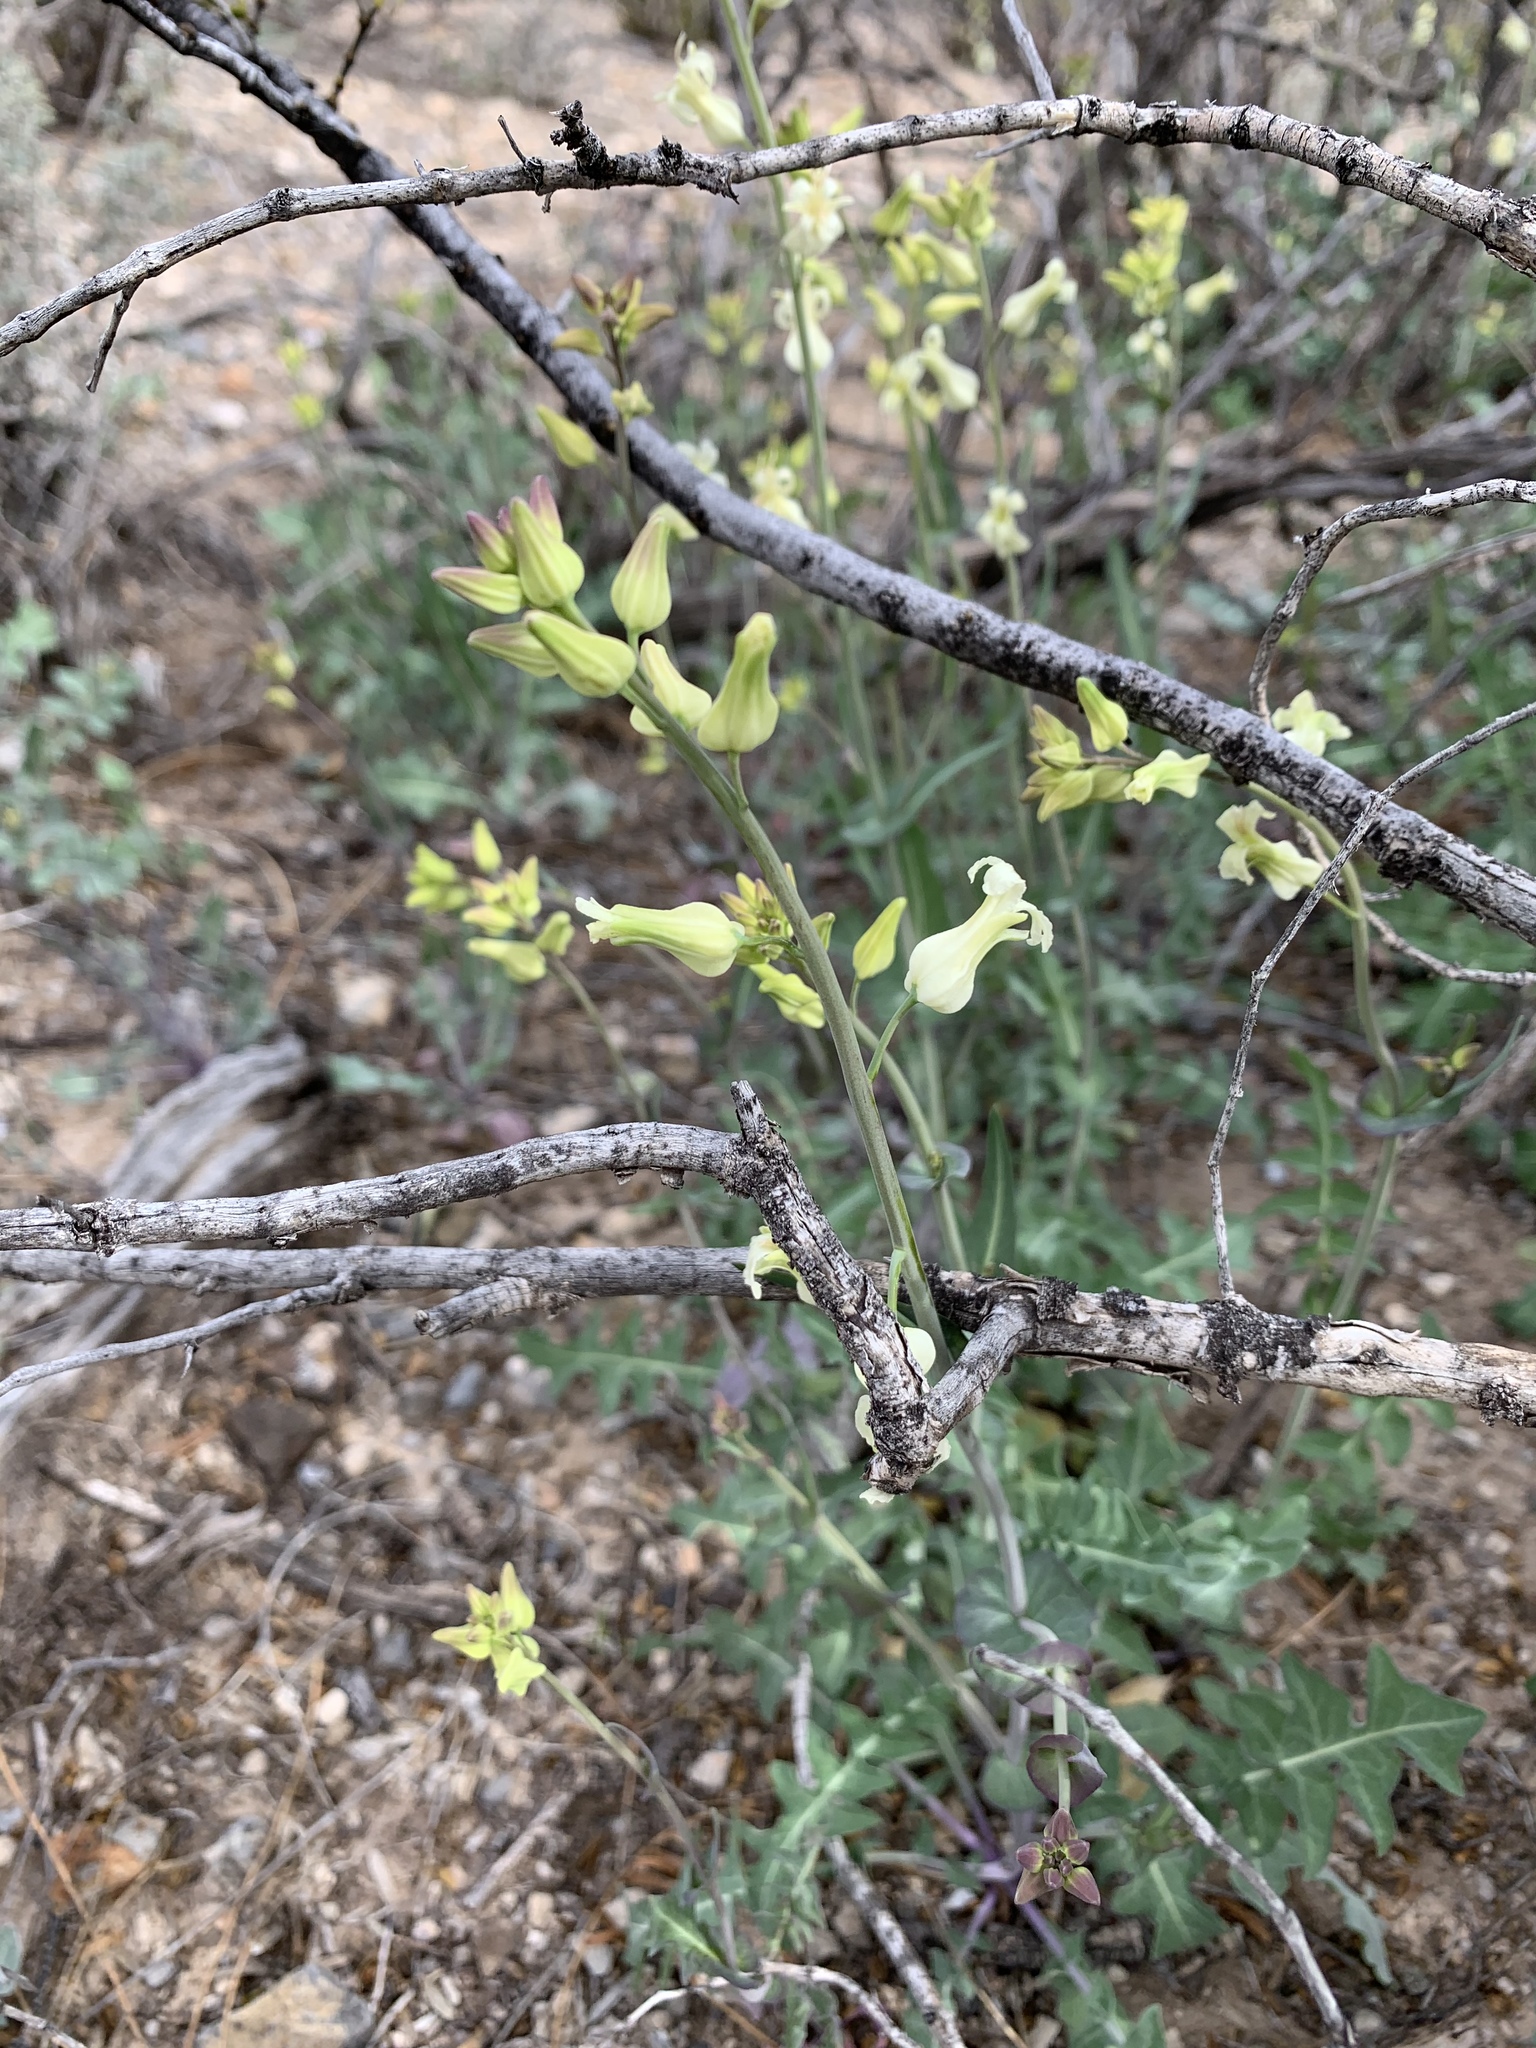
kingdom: Plantae
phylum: Tracheophyta
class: Magnoliopsida
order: Brassicales
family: Brassicaceae
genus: Streptanthus
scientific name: Streptanthus carinatus
